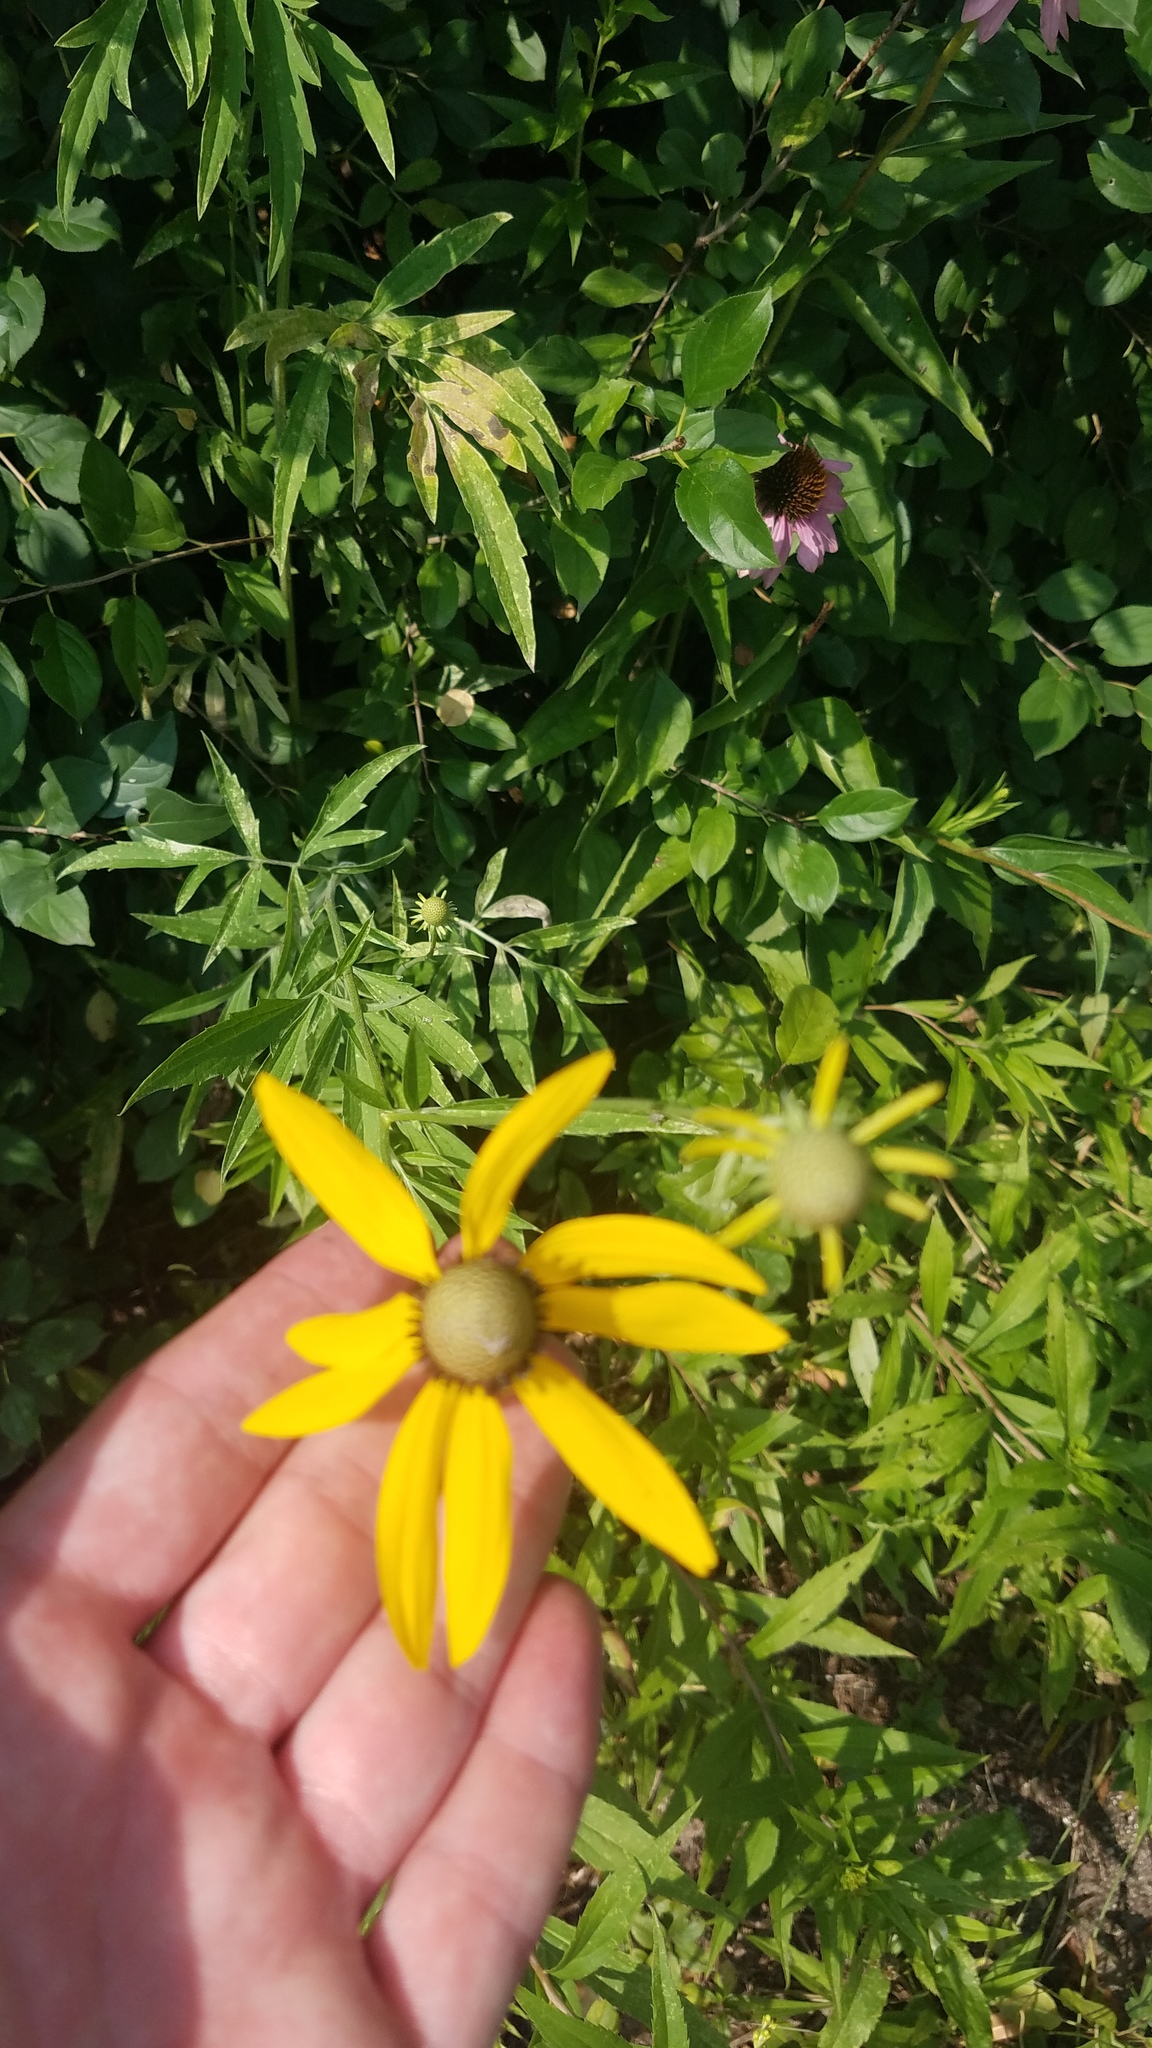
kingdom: Plantae
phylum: Tracheophyta
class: Magnoliopsida
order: Asterales
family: Asteraceae
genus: Ratibida
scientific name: Ratibida pinnata
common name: Drooping prairie-coneflower
